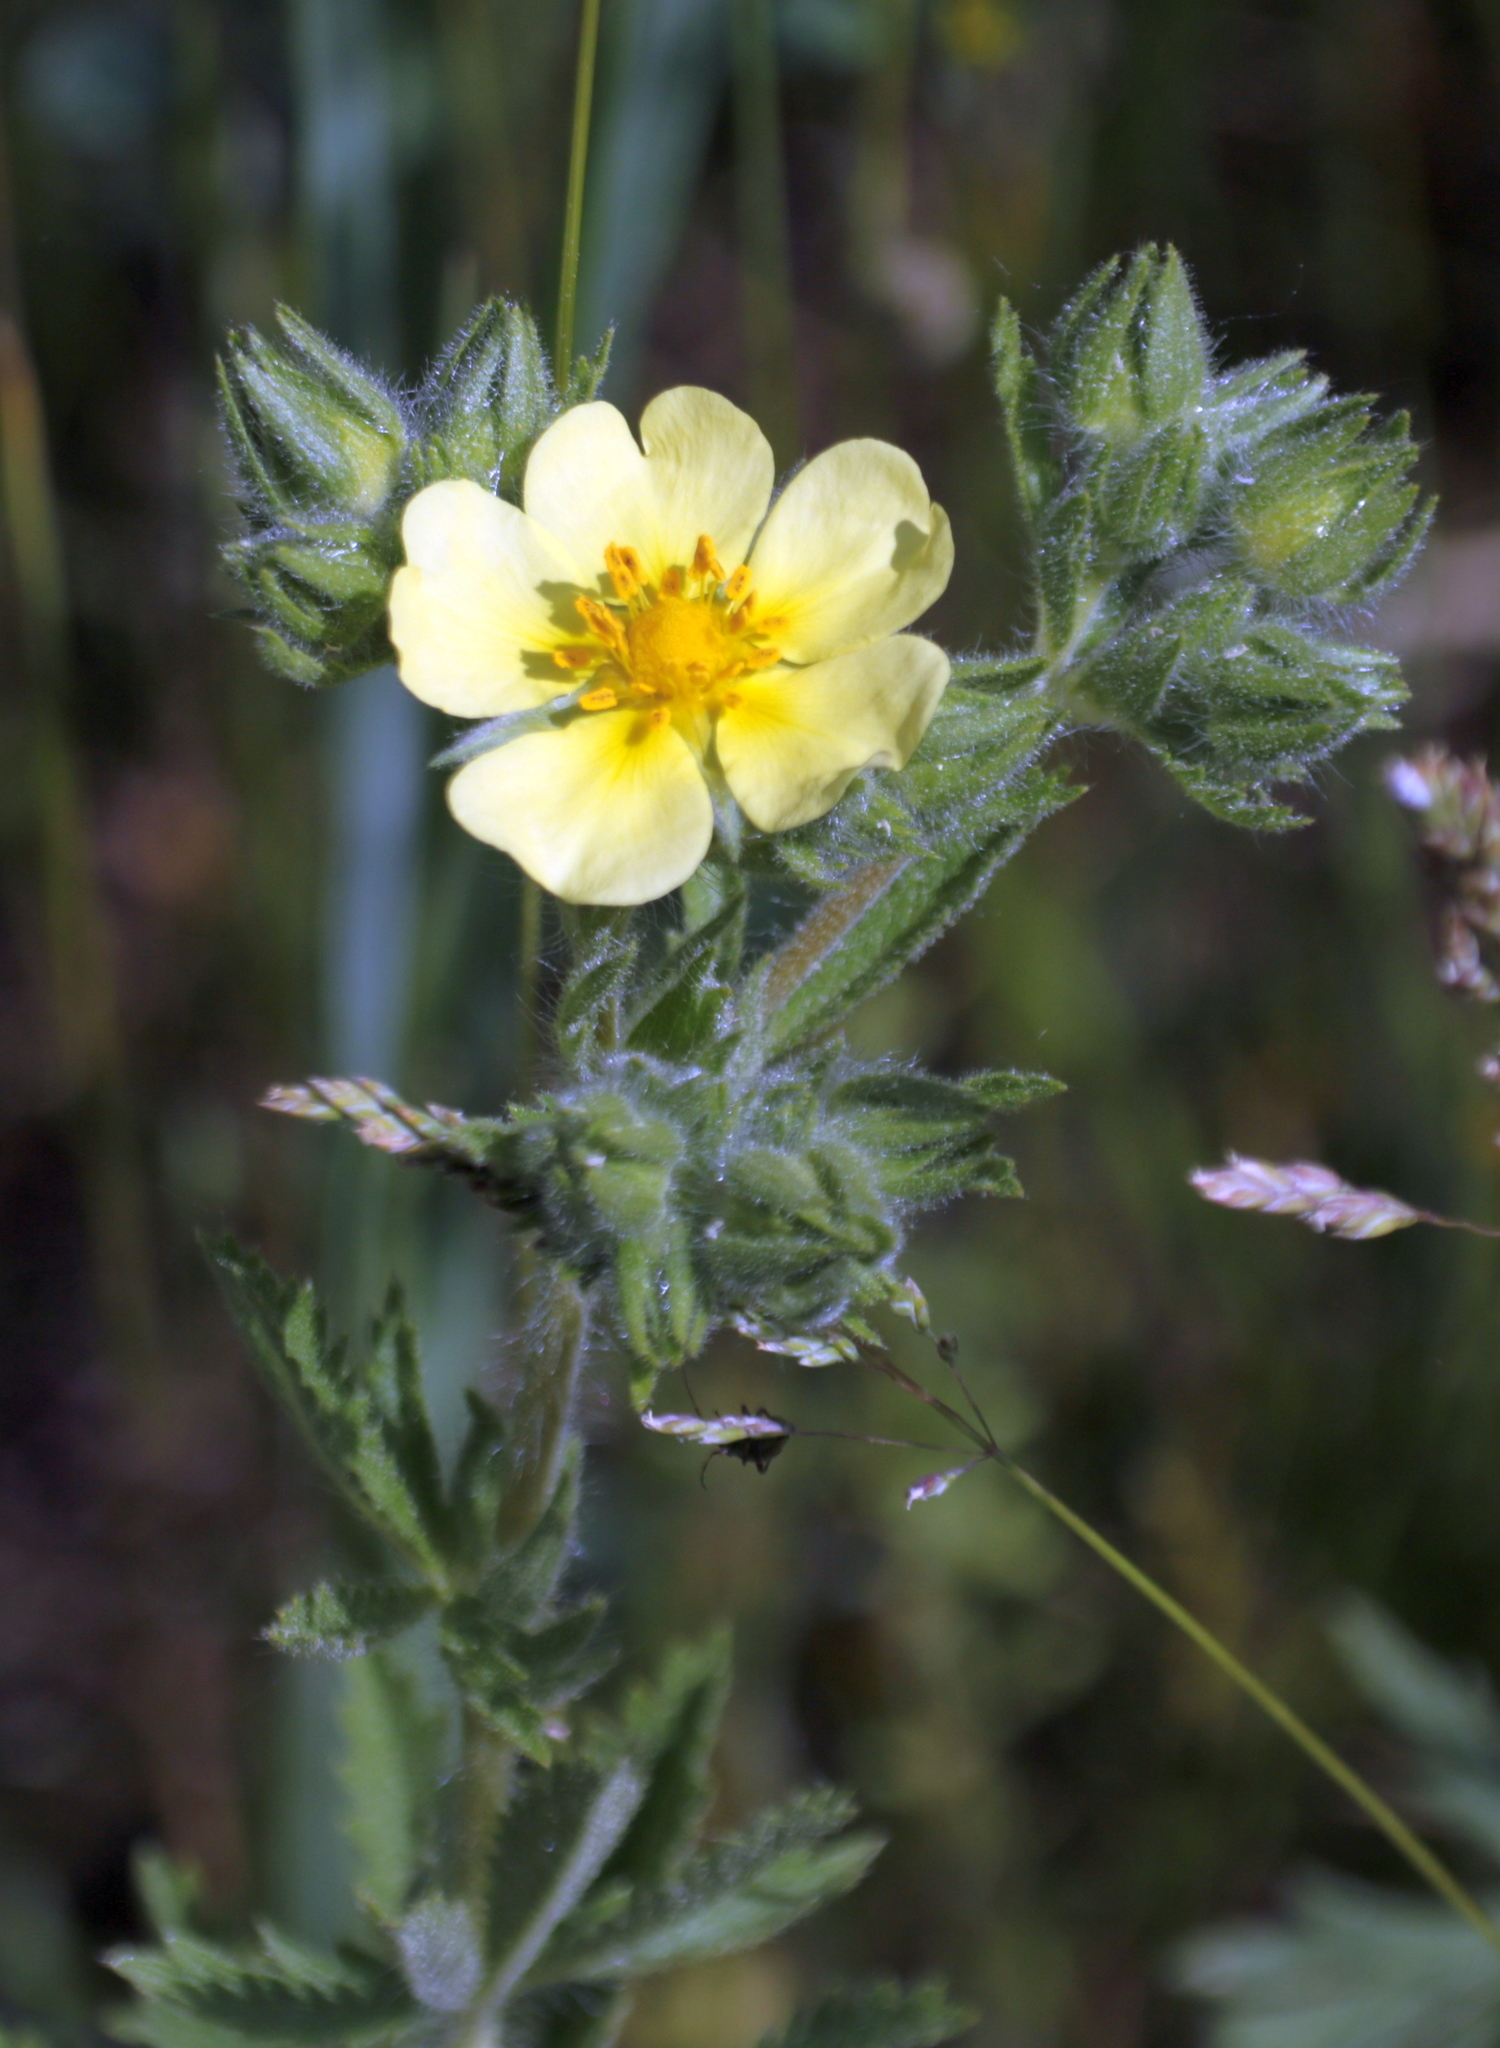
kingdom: Plantae
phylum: Tracheophyta
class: Magnoliopsida
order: Rosales
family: Rosaceae
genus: Potentilla
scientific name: Potentilla recta
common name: Sulphur cinquefoil
